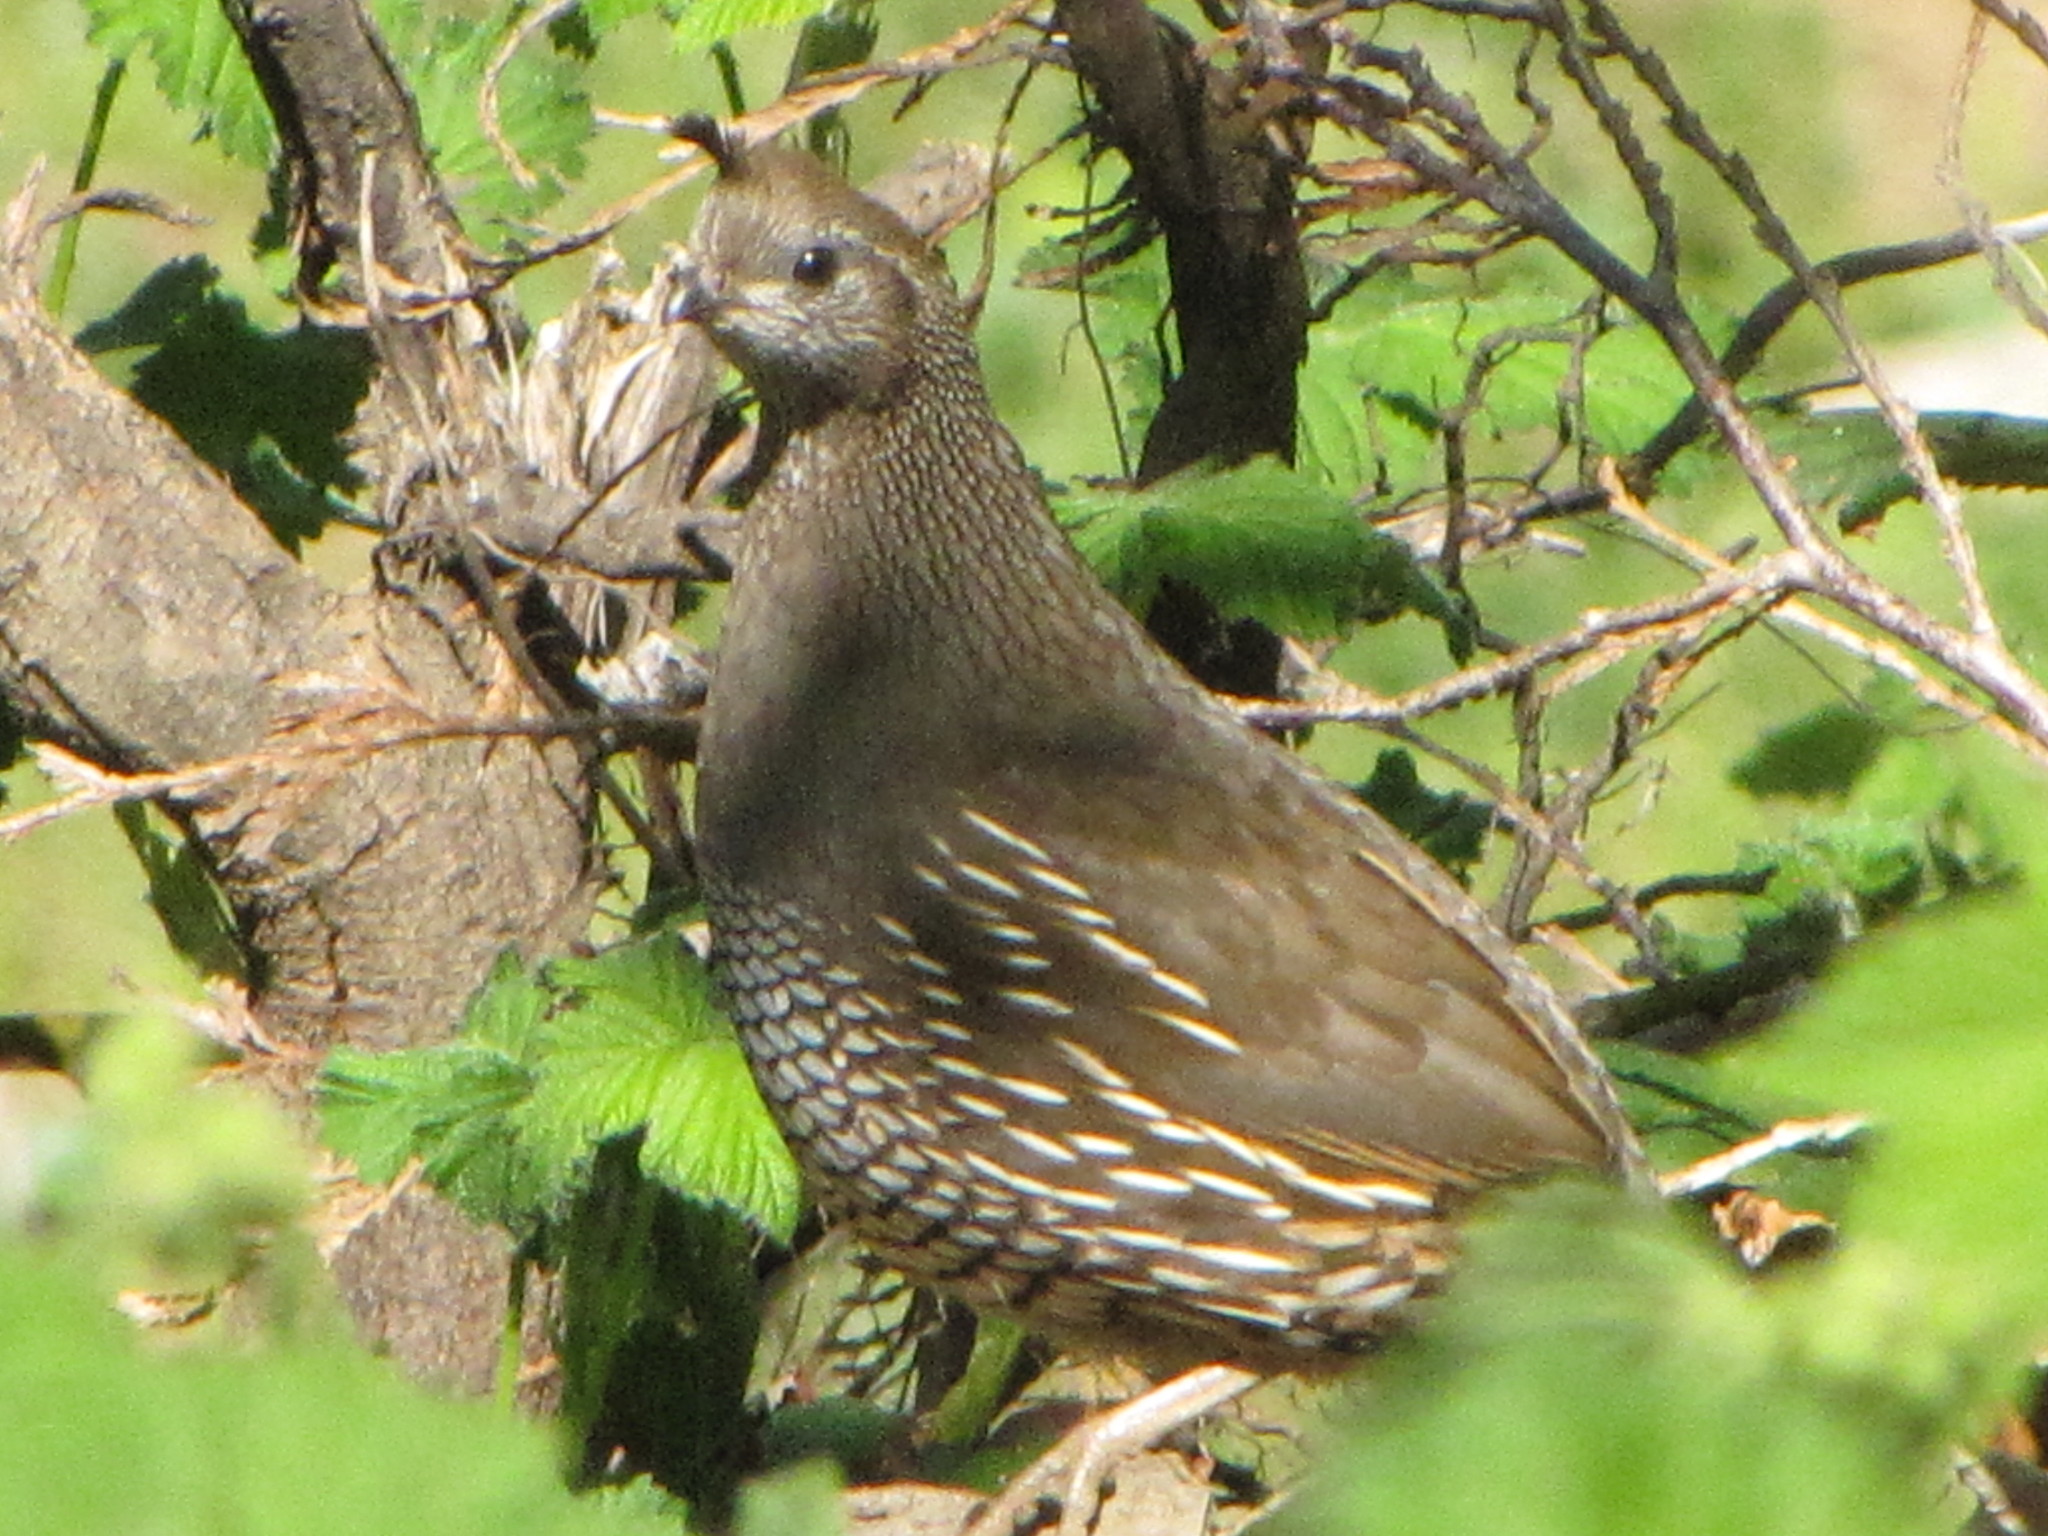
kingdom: Animalia
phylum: Chordata
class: Aves
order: Galliformes
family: Odontophoridae
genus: Callipepla
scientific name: Callipepla californica
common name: California quail
